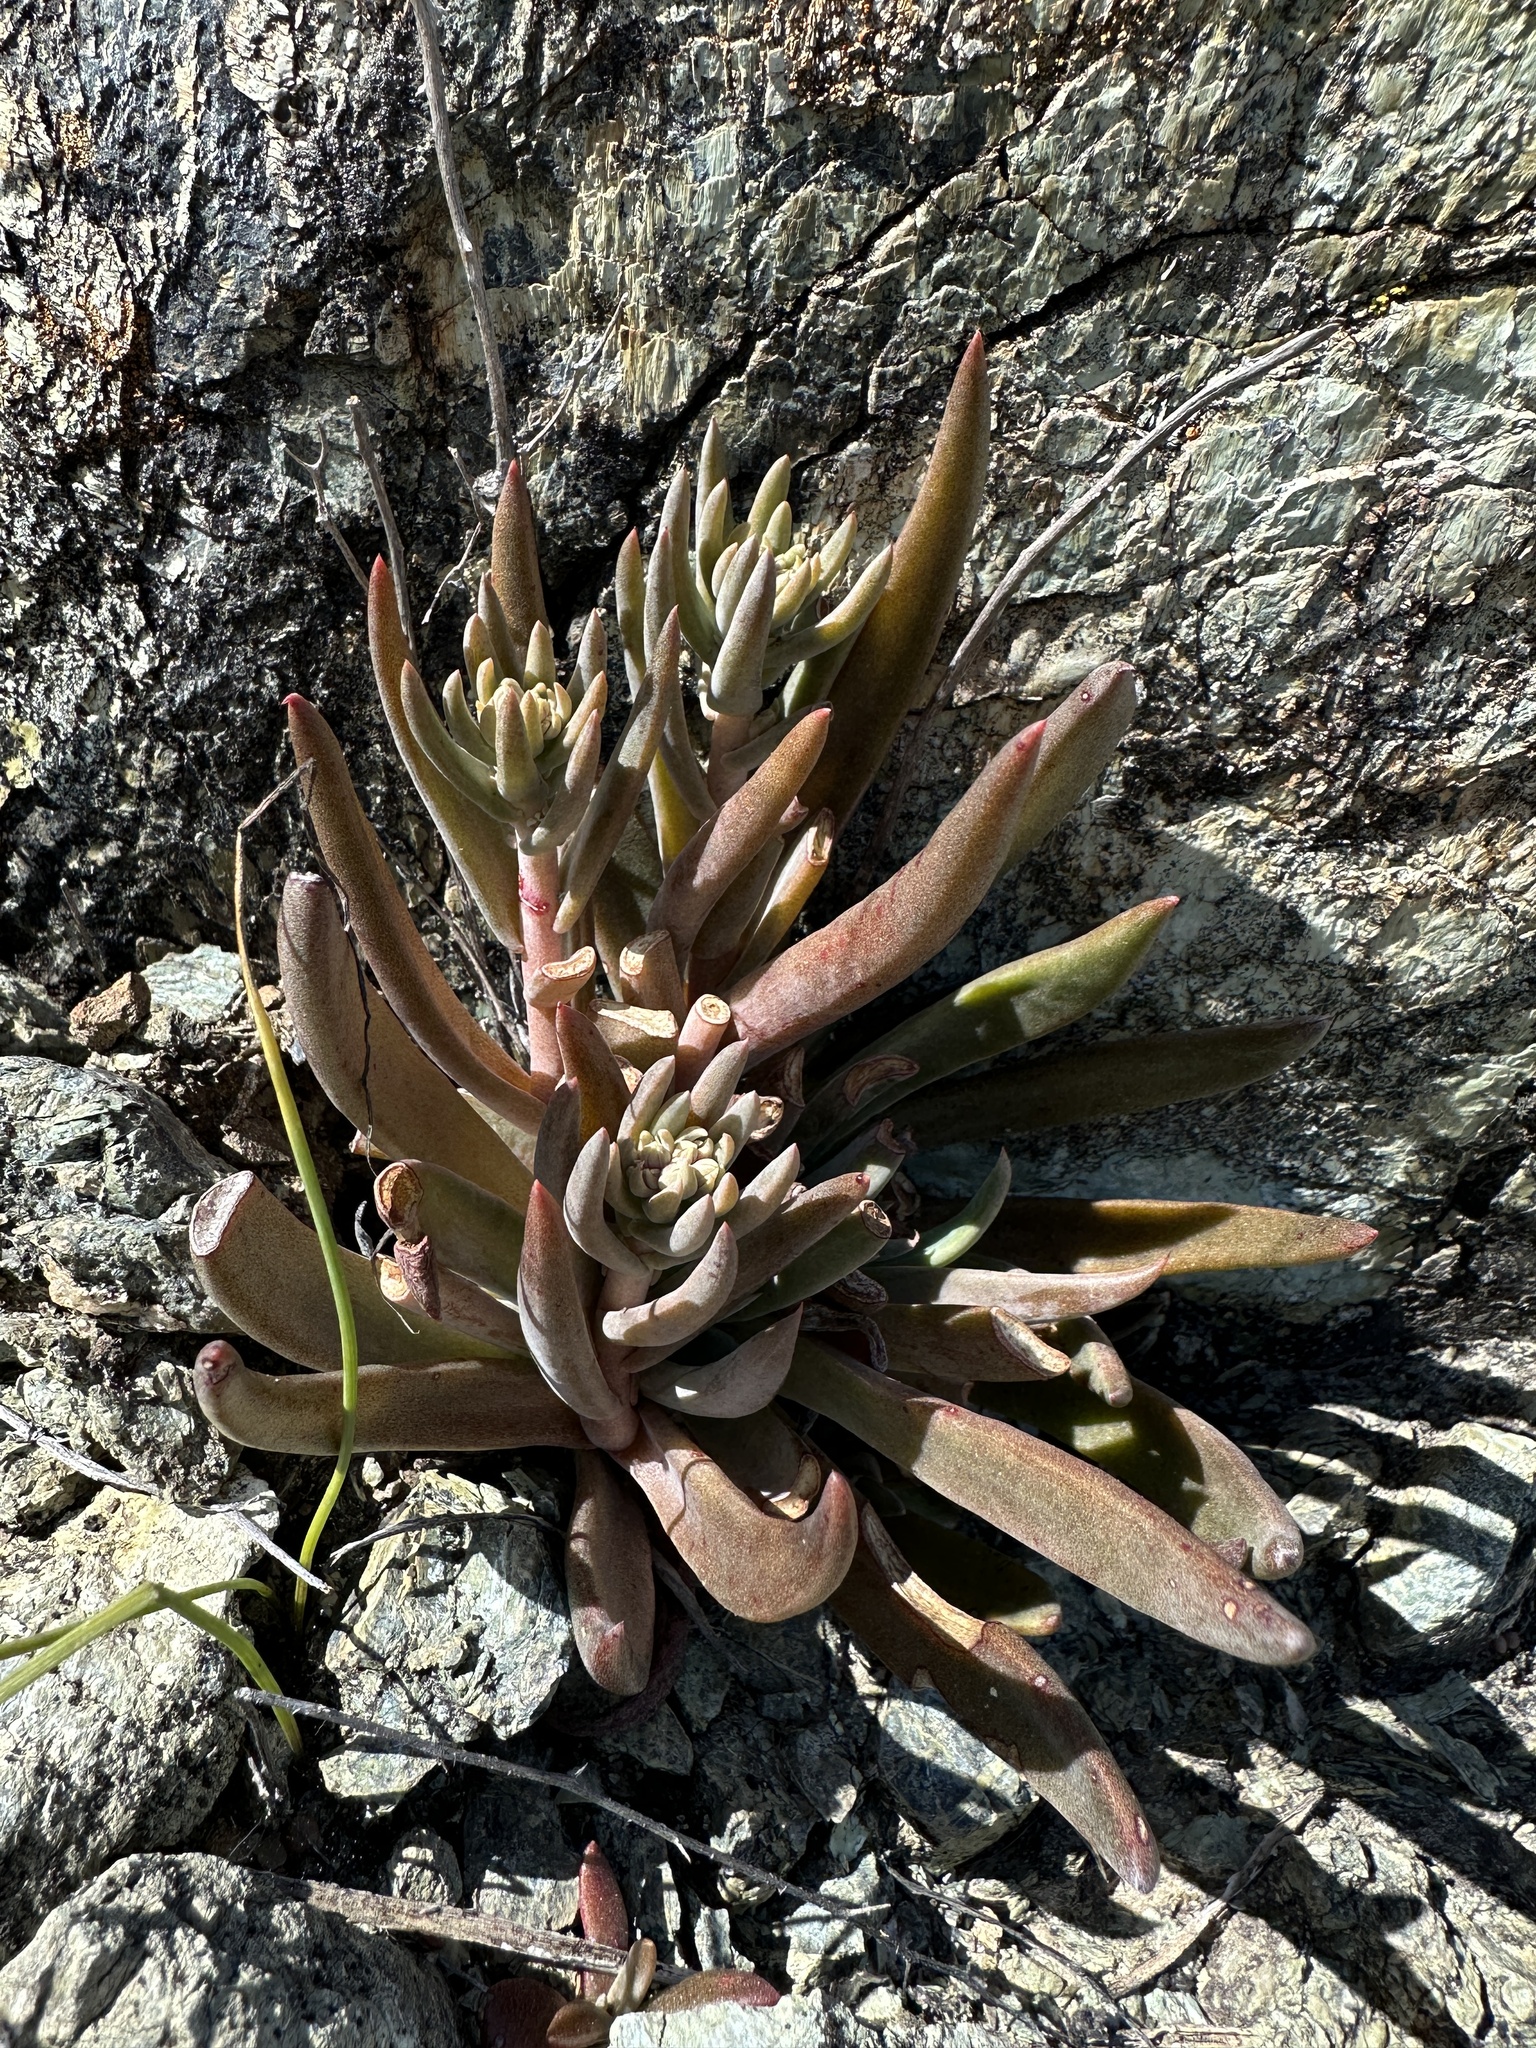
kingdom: Plantae
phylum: Tracheophyta
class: Magnoliopsida
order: Saxifragales
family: Crassulaceae
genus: Dudleya
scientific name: Dudleya abramsii
